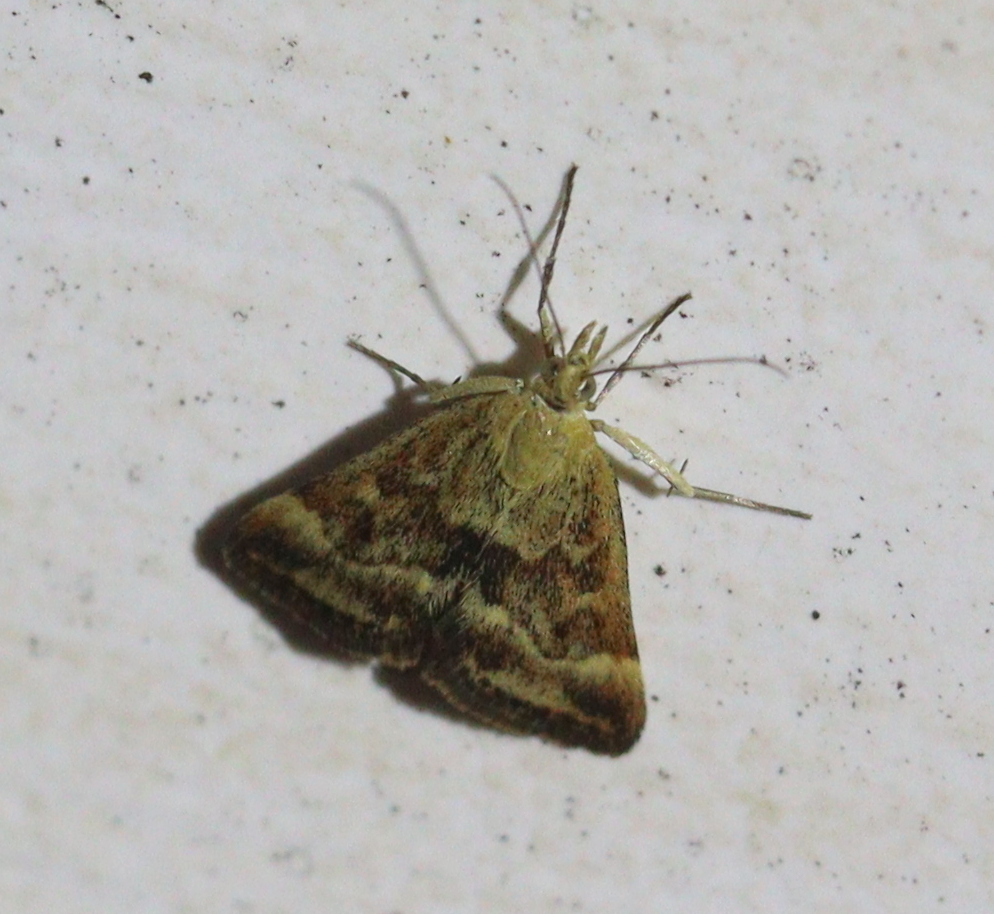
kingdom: Animalia
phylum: Arthropoda
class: Insecta
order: Lepidoptera
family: Crambidae
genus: Pyrausta
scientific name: Pyrausta despicata
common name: Straw-barred pearl
